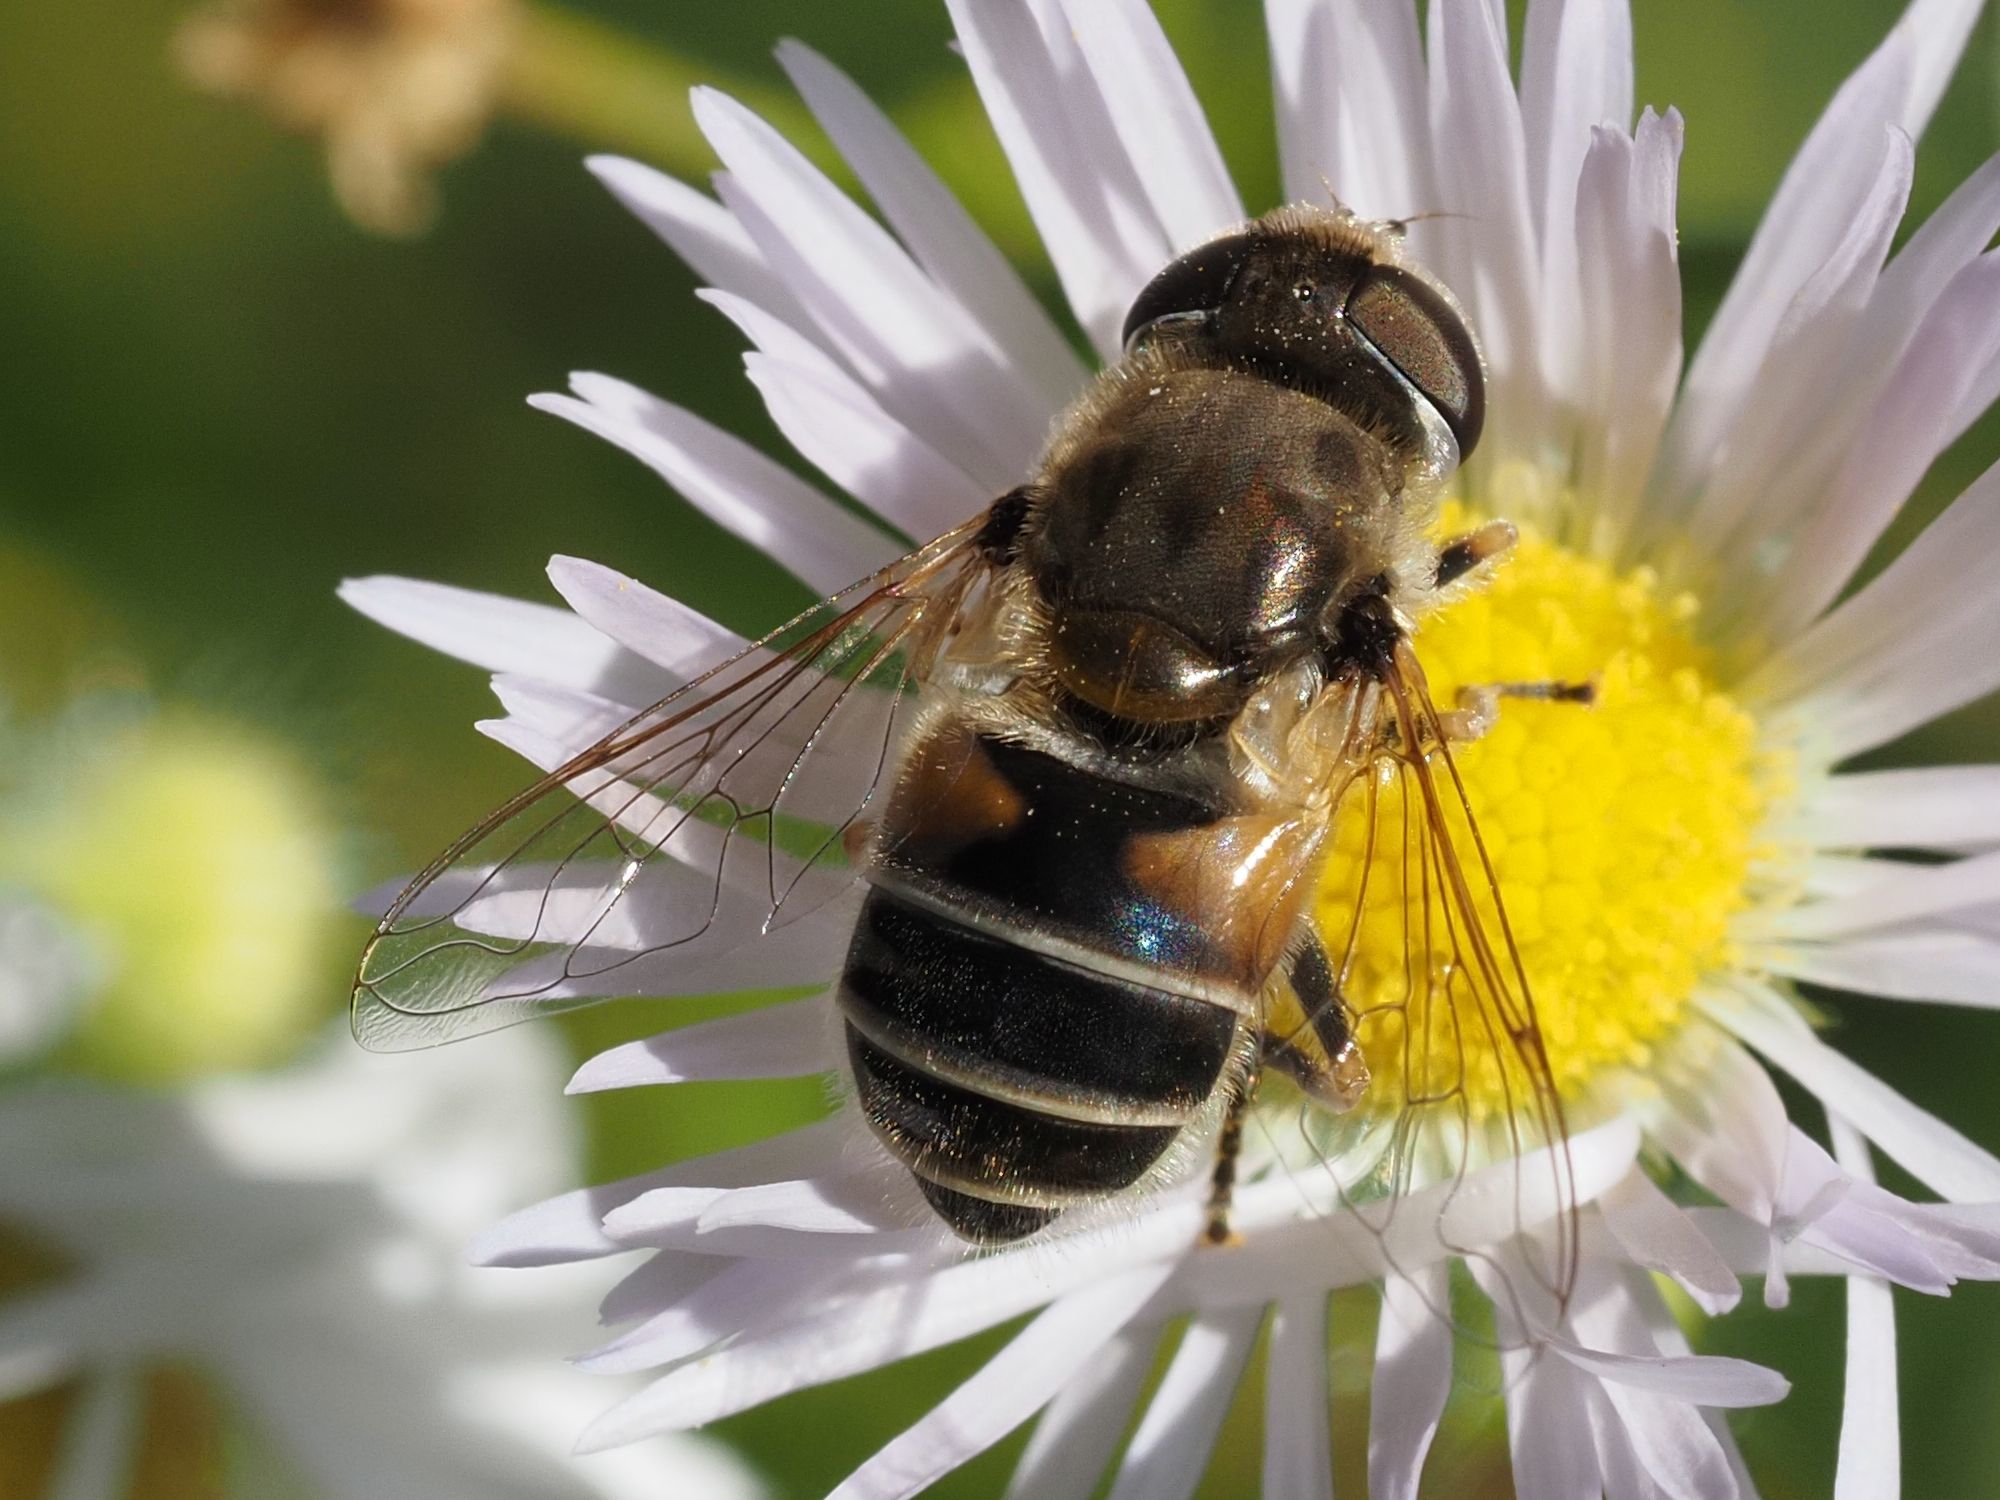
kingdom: Animalia
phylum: Arthropoda
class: Insecta
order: Diptera
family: Syrphidae
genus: Eristalis
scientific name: Eristalis arbustorum
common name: Hover fly
